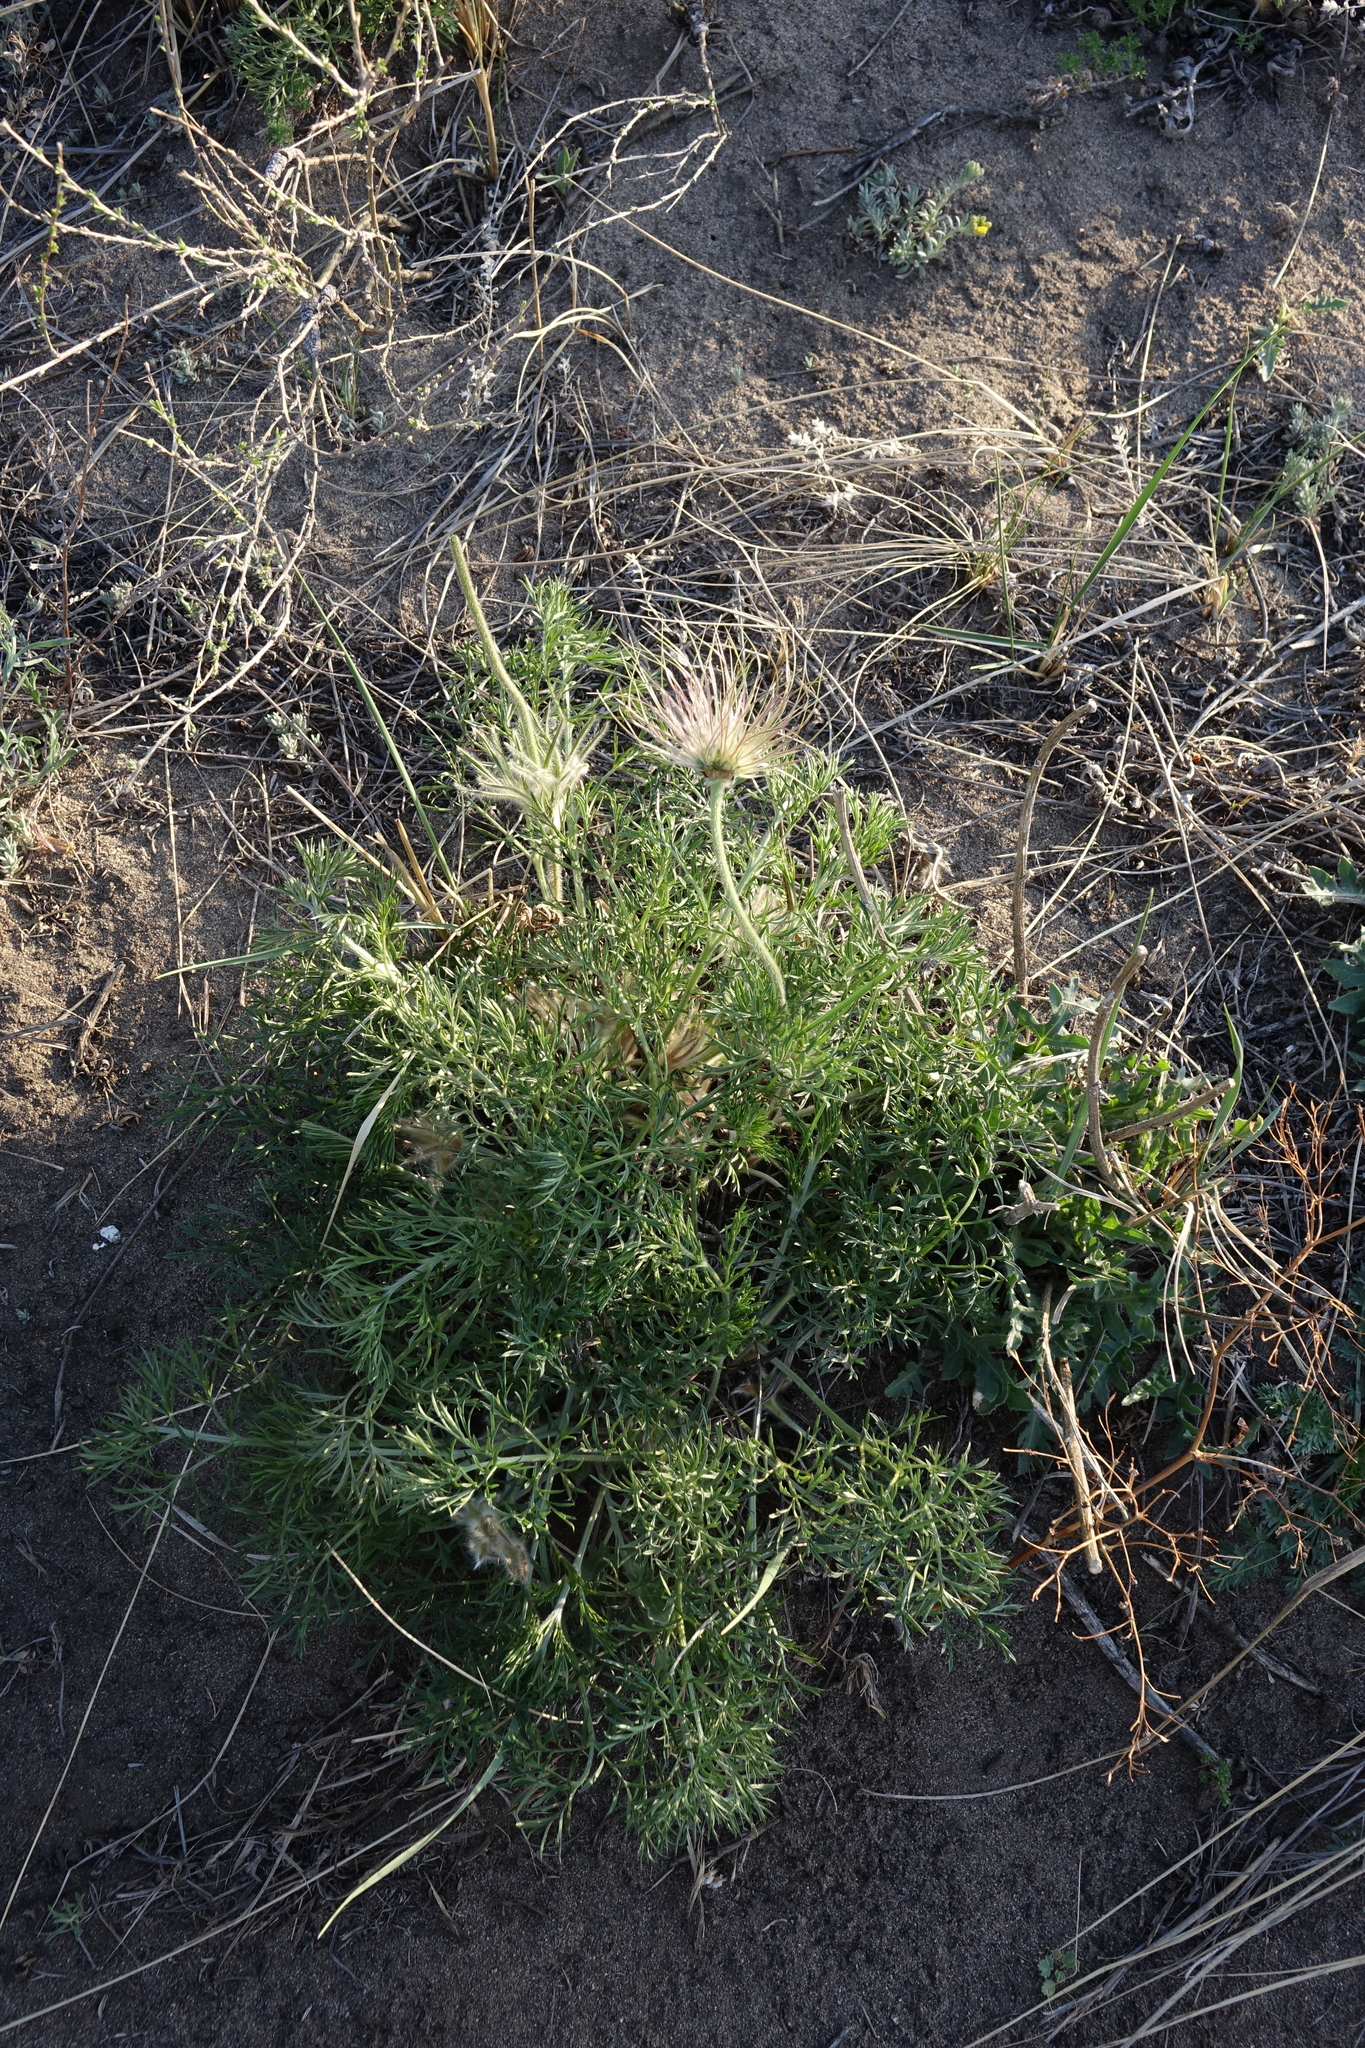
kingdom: Plantae
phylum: Tracheophyta
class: Magnoliopsida
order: Ranunculales
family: Ranunculaceae
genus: Pulsatilla
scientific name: Pulsatilla turczaninovii
